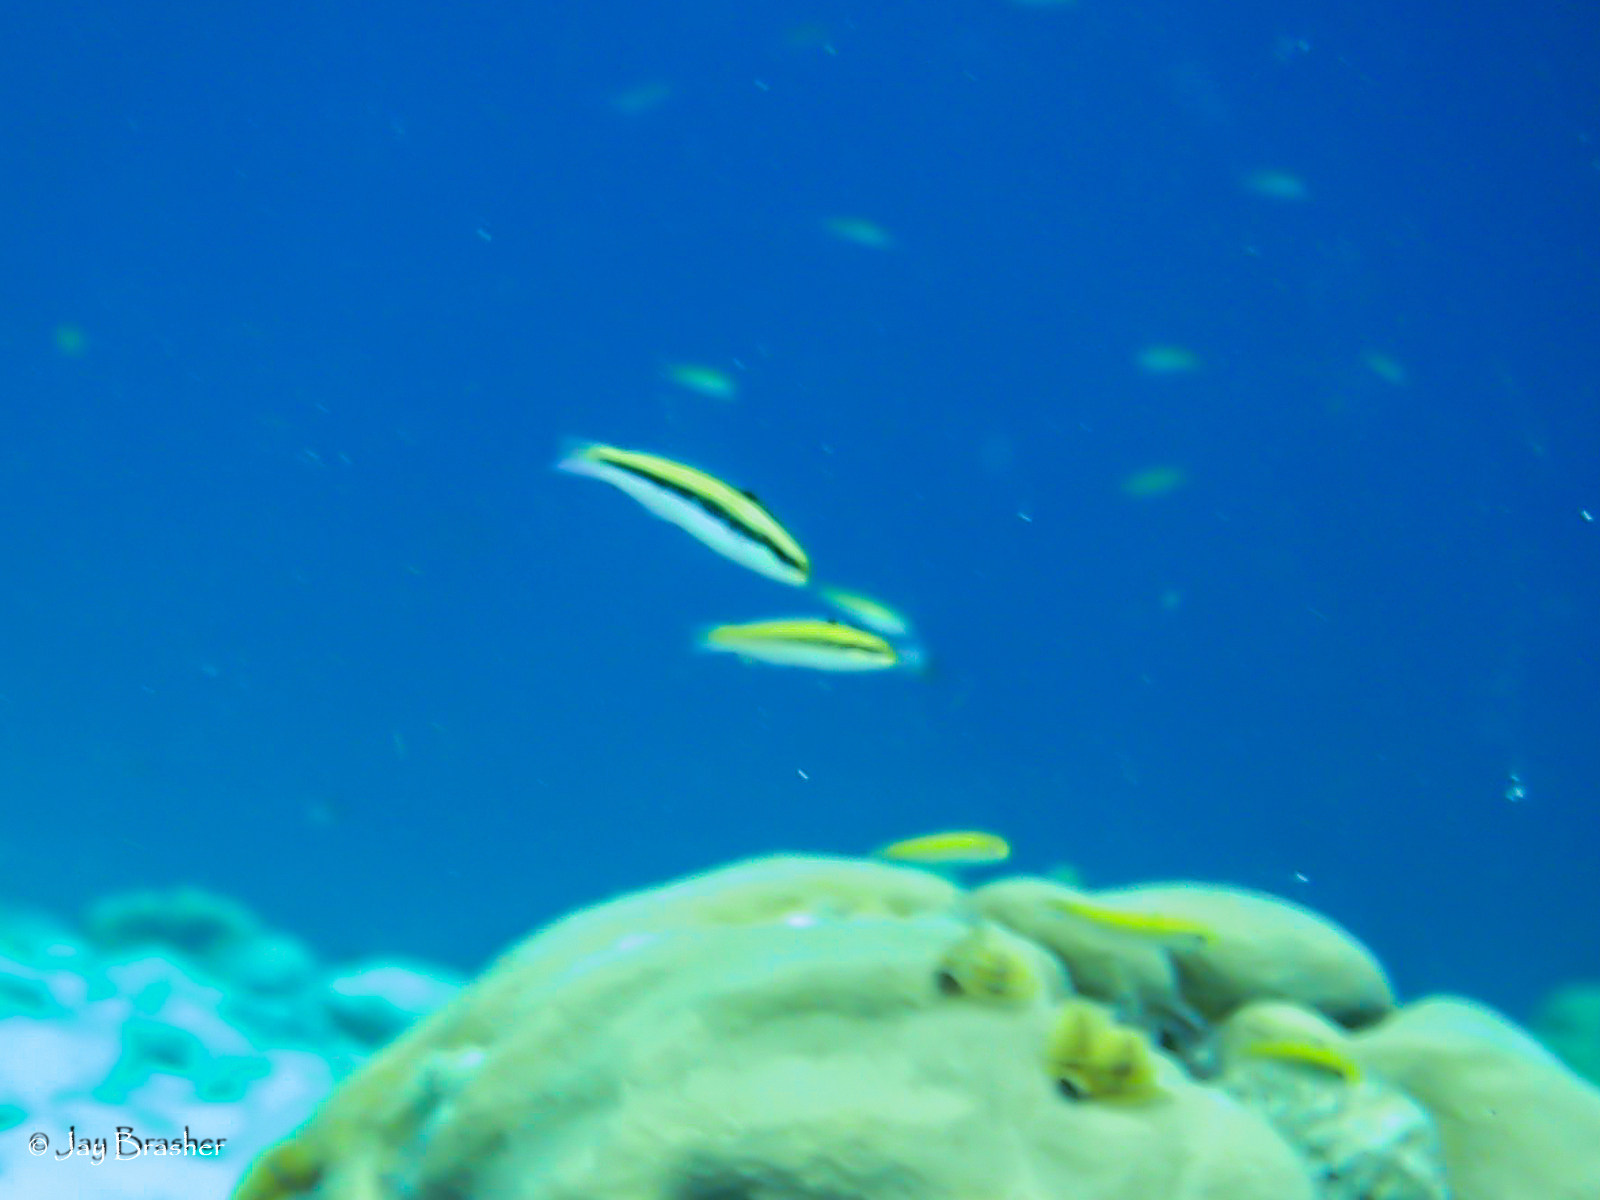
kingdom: Animalia
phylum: Chordata
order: Perciformes
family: Labridae
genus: Thalassoma
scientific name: Thalassoma bifasciatum
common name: Bluehead wrasse
